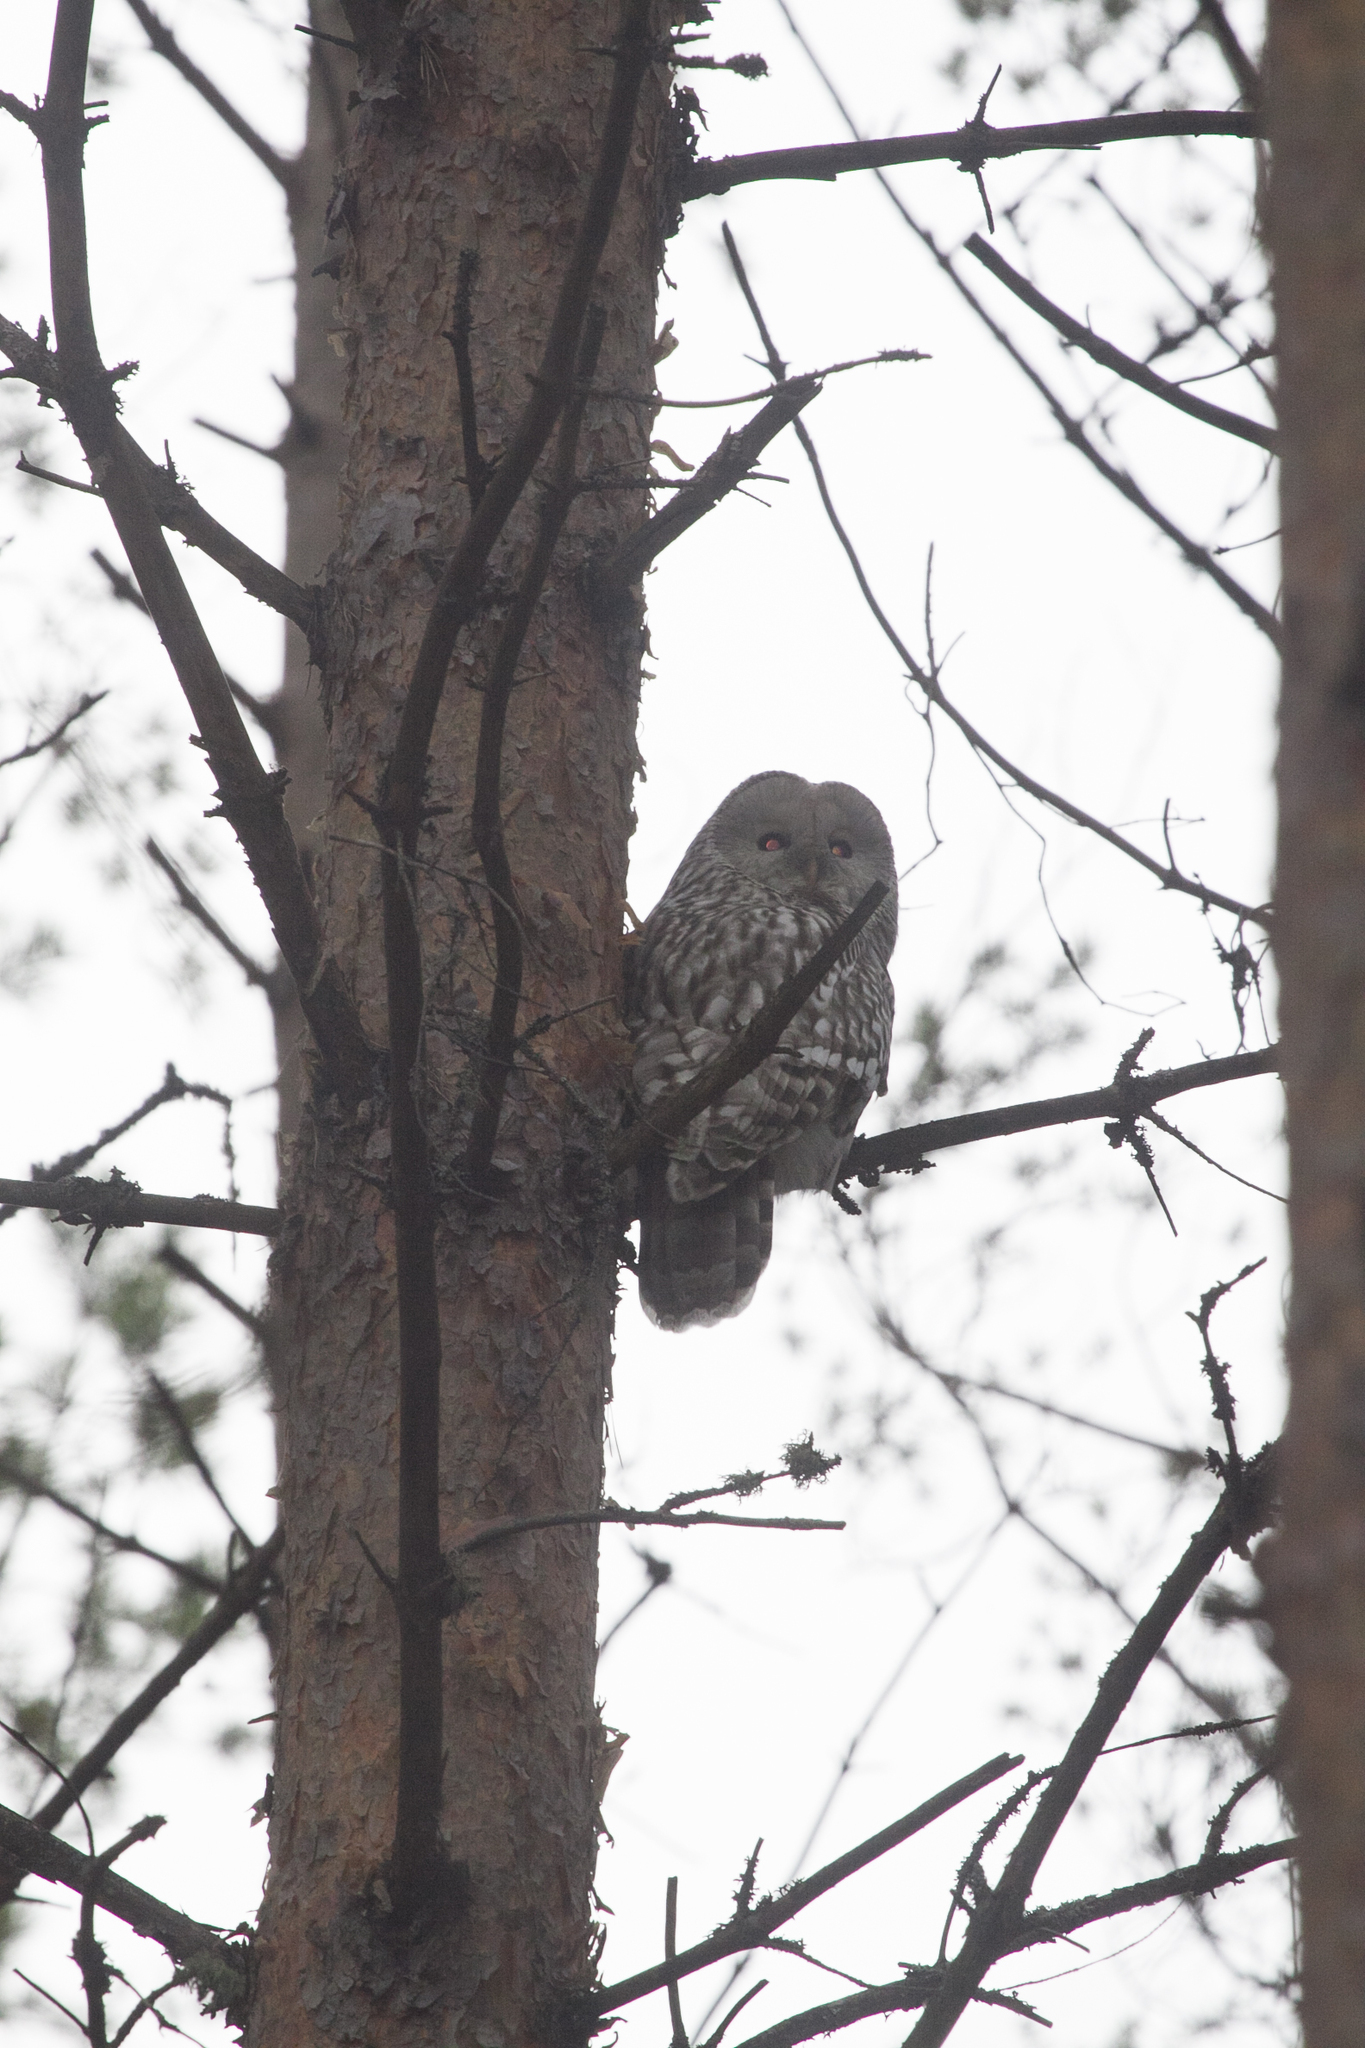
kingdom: Animalia
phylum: Chordata
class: Aves
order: Strigiformes
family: Strigidae
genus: Strix
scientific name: Strix uralensis
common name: Ural owl
